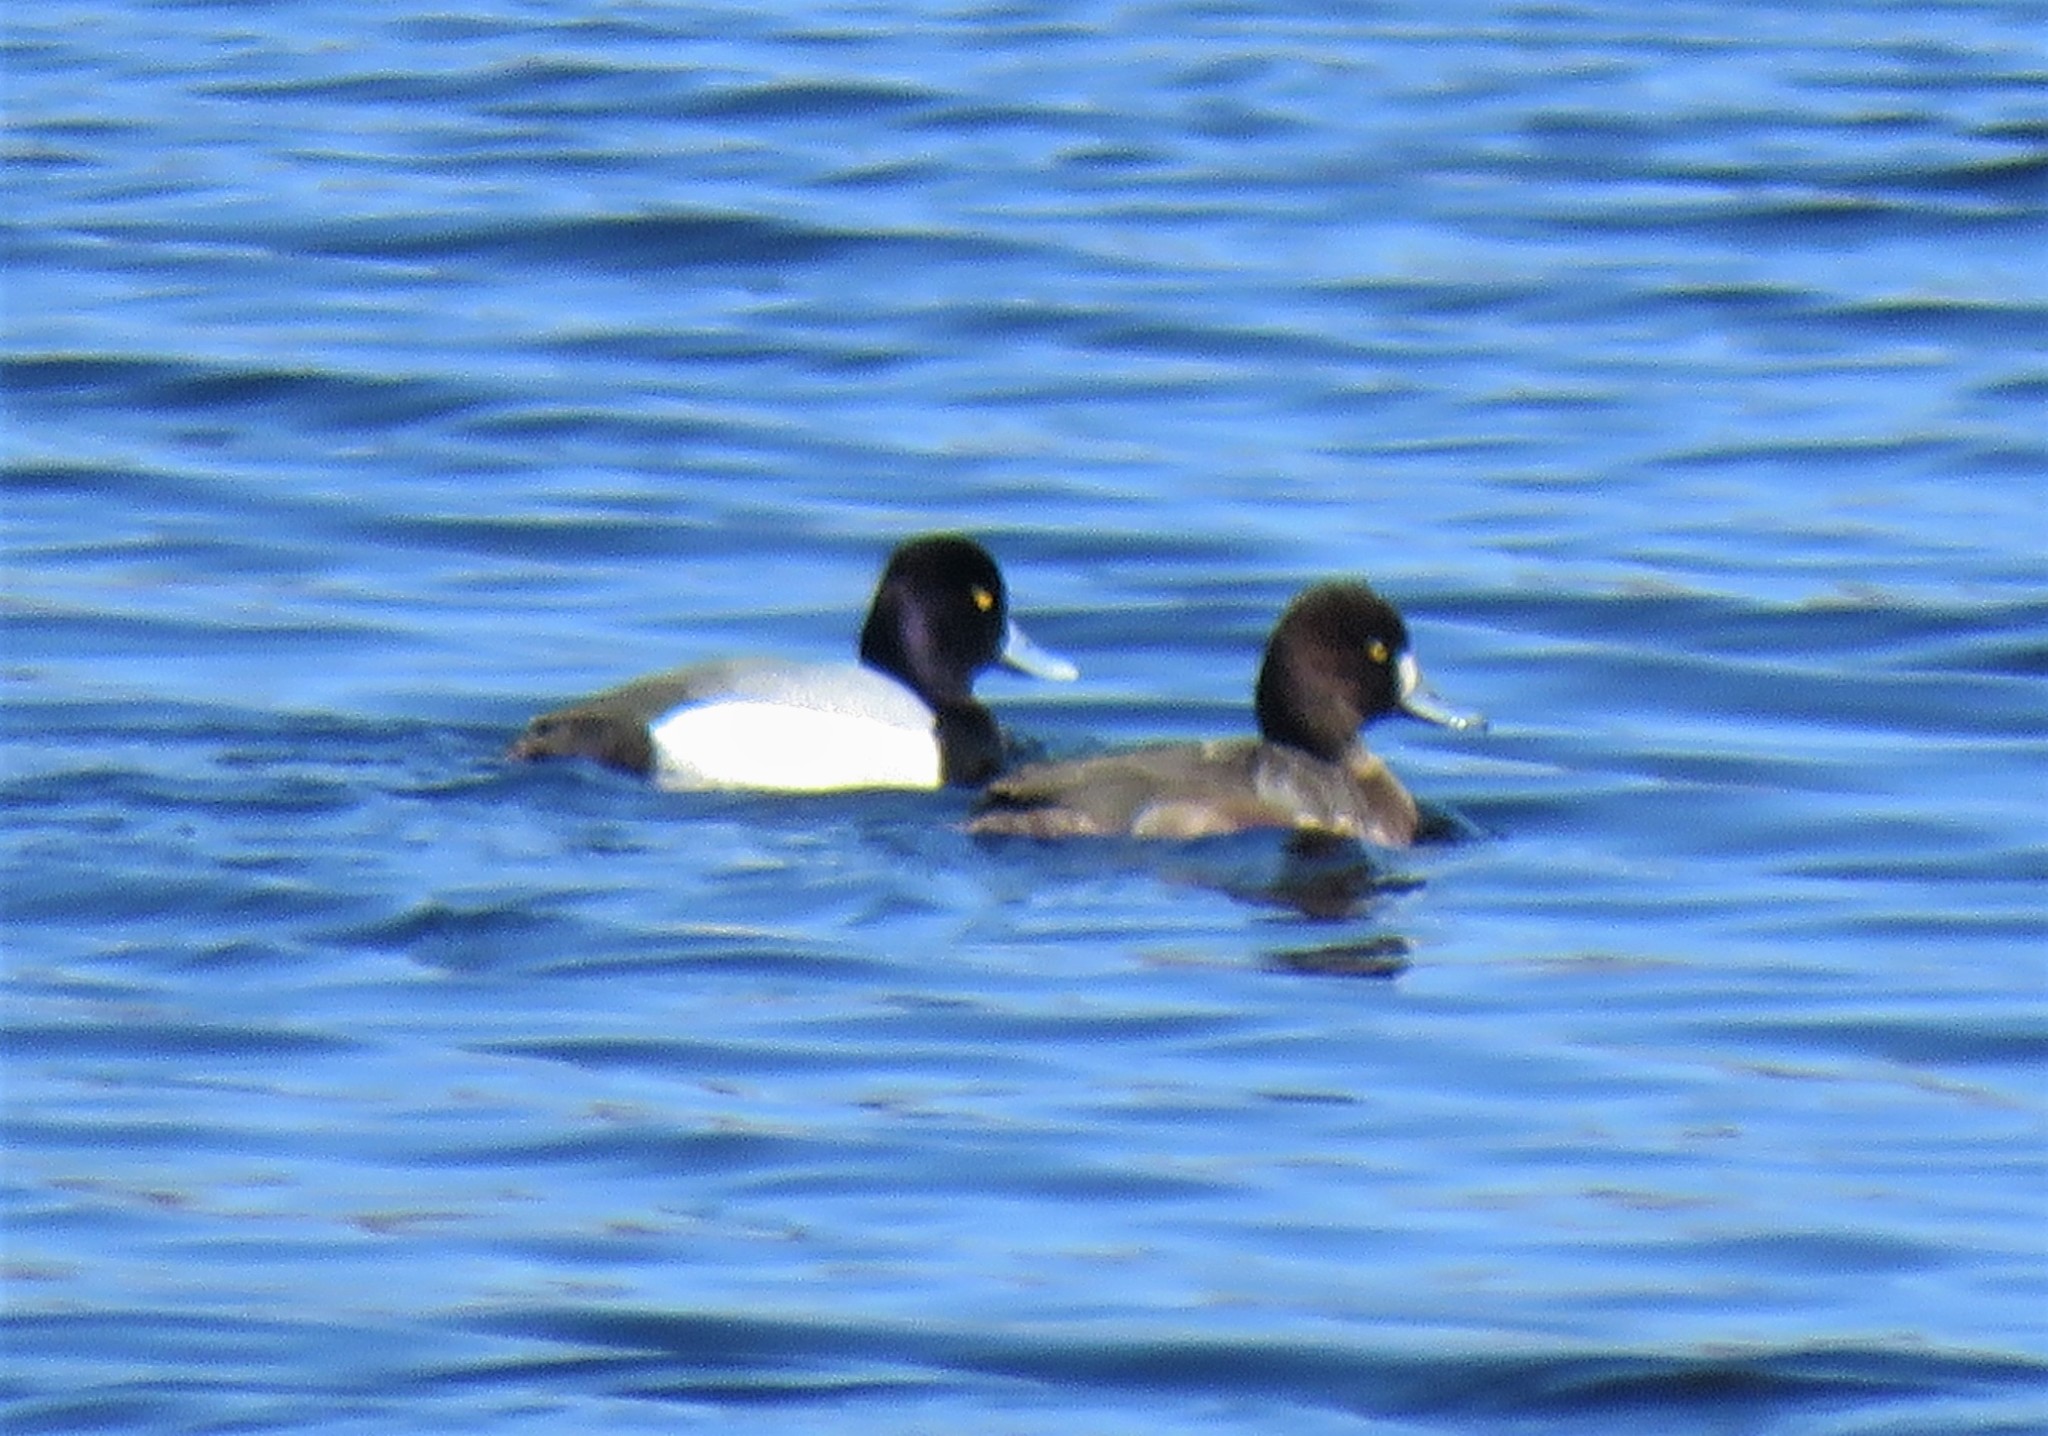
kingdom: Animalia
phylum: Chordata
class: Aves
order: Anseriformes
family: Anatidae
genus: Aythya
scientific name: Aythya affinis
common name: Lesser scaup
